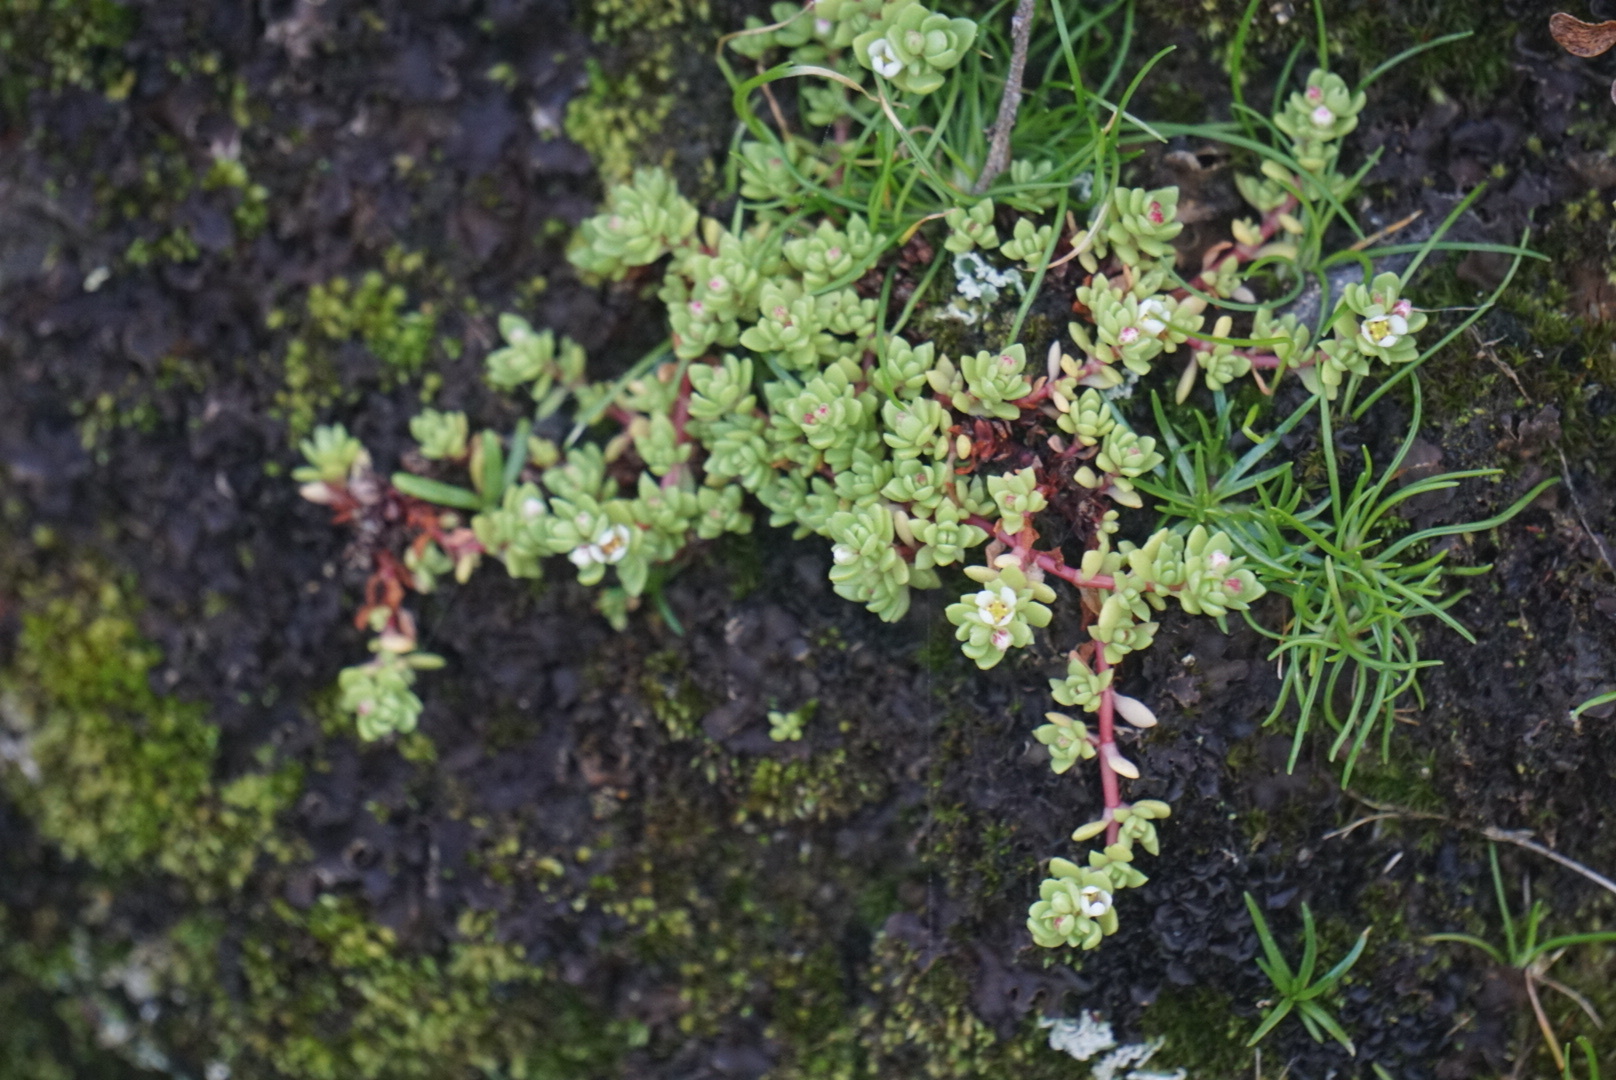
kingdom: Plantae
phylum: Tracheophyta
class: Magnoliopsida
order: Saxifragales
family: Crassulaceae
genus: Crassula
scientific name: Crassula moschata
